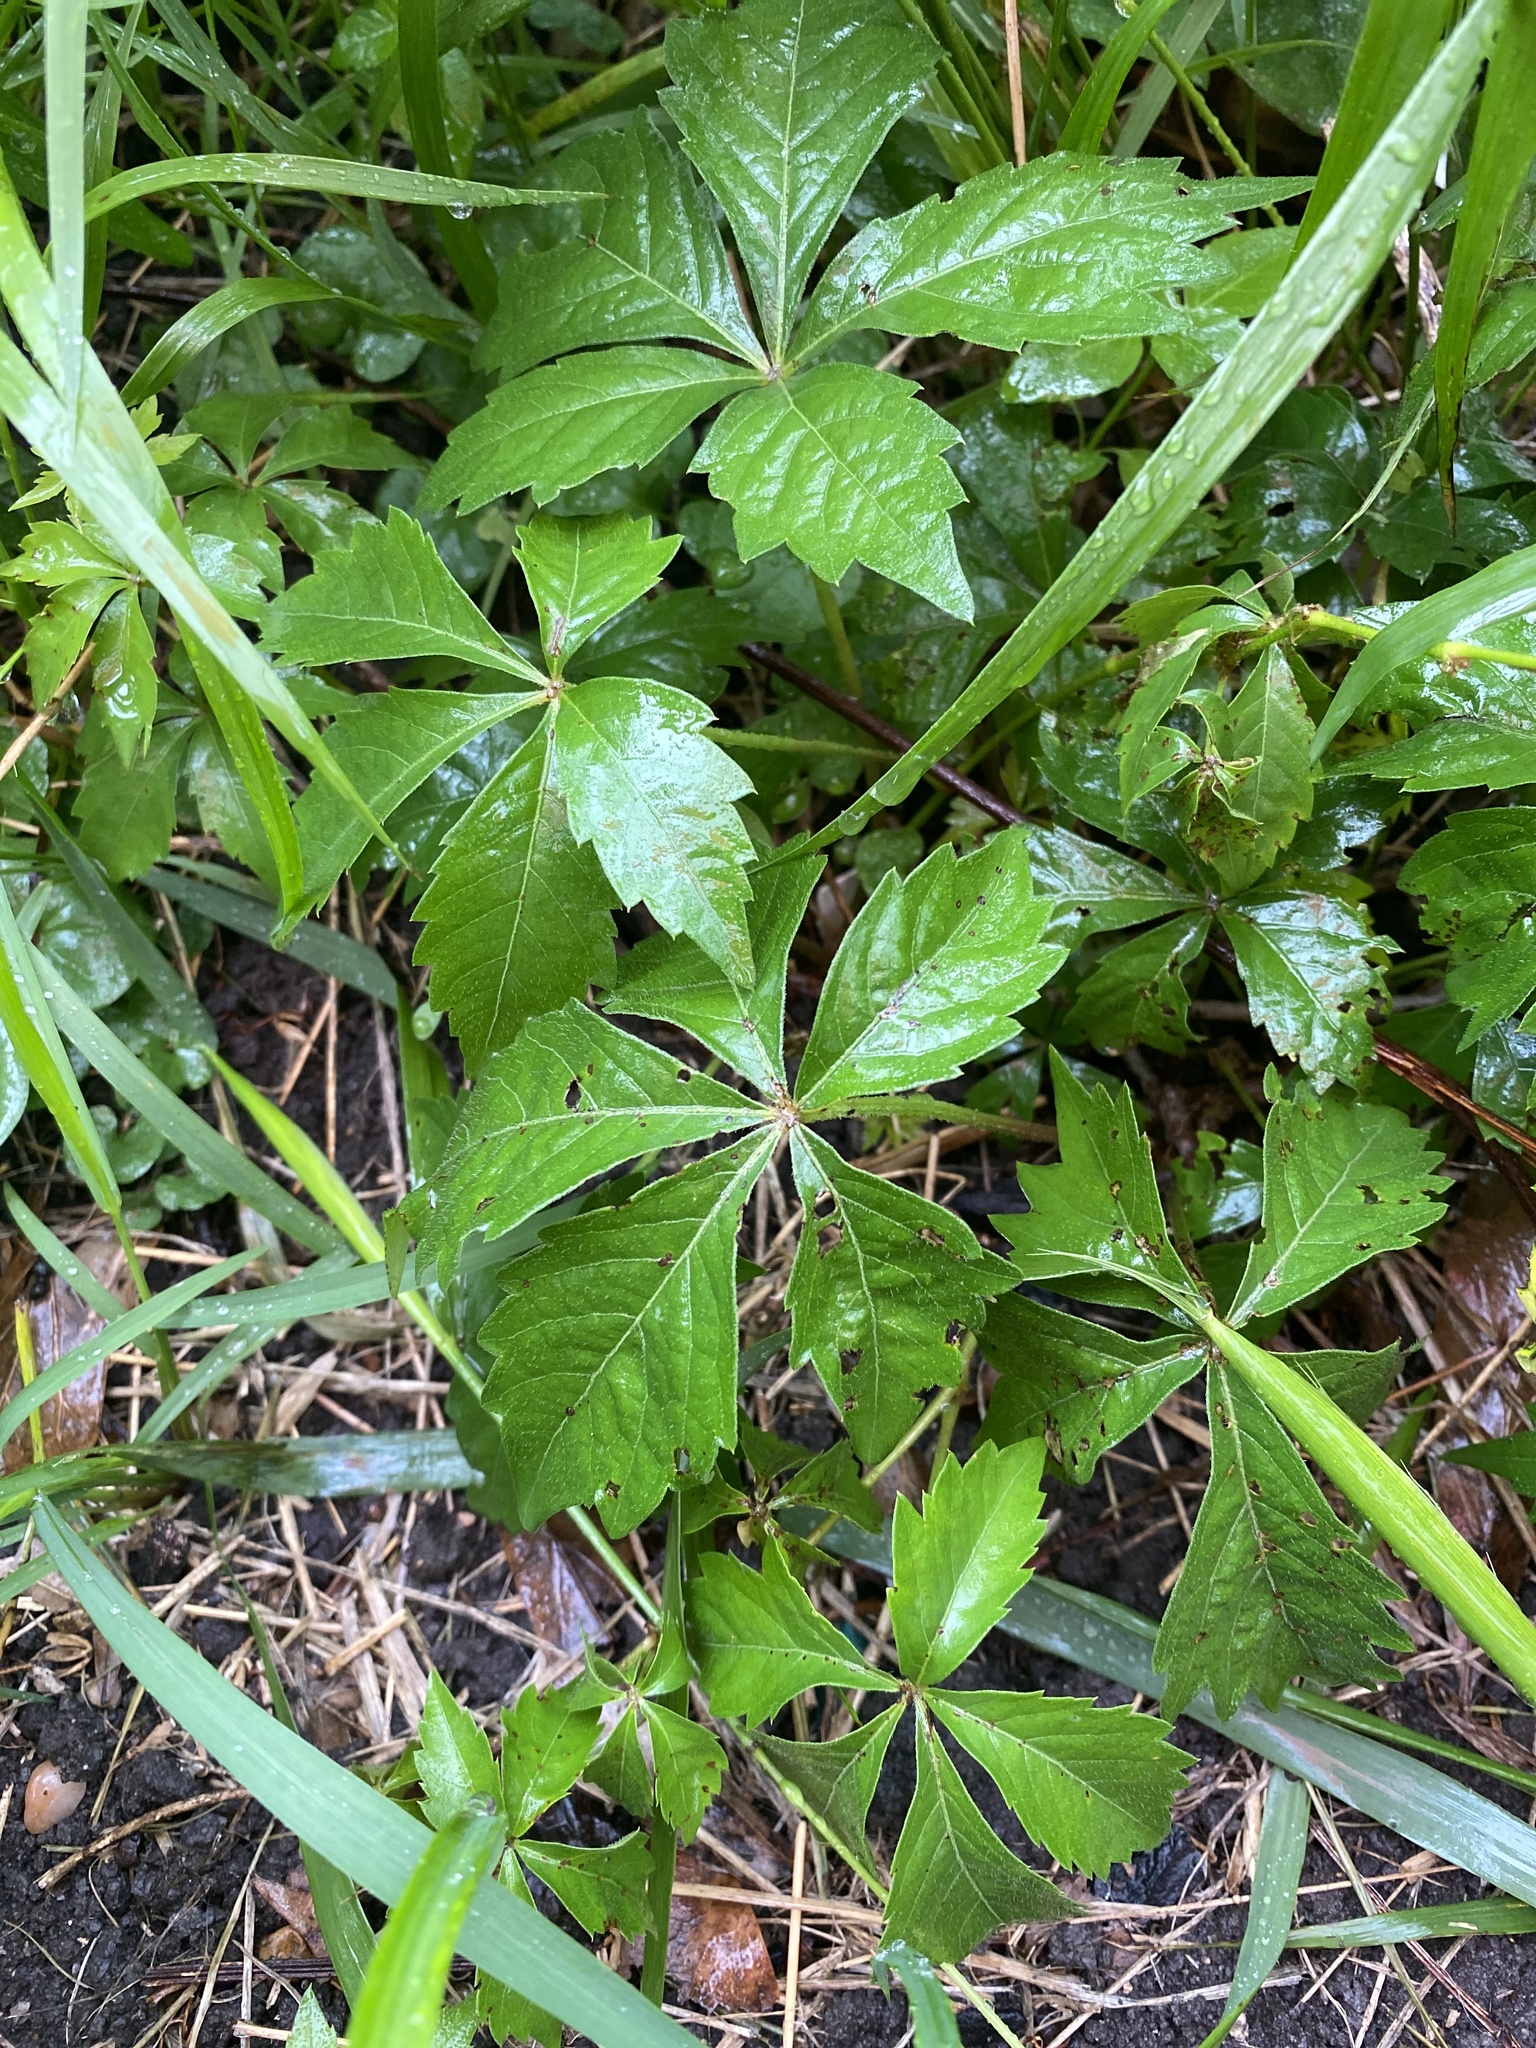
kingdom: Plantae
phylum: Tracheophyta
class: Magnoliopsida
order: Vitales
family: Vitaceae
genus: Parthenocissus
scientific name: Parthenocissus quinquefolia
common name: Virginia-creeper
